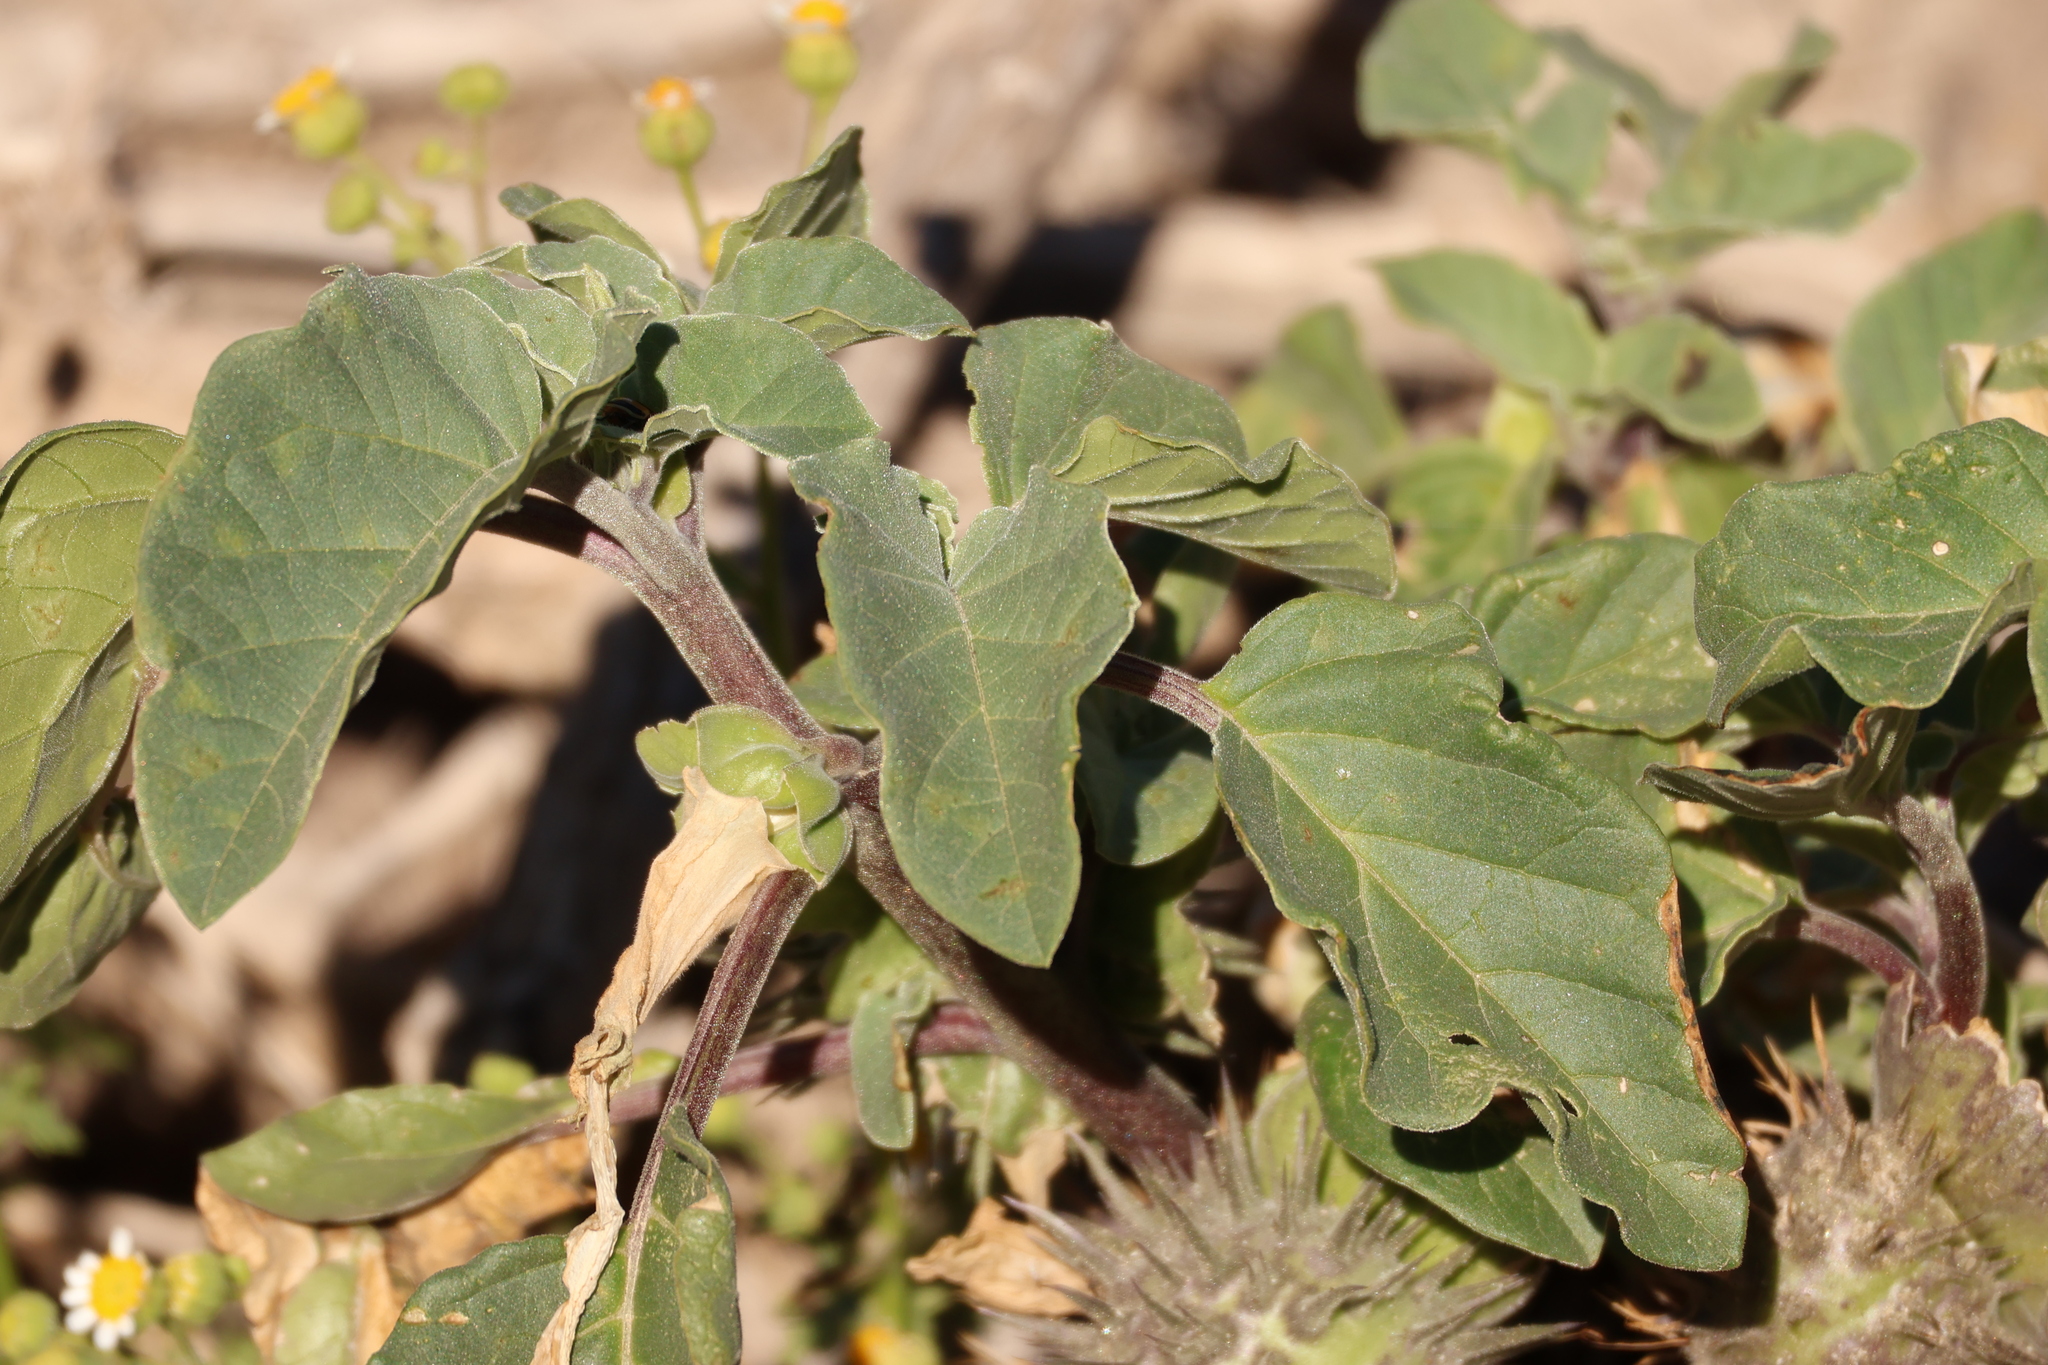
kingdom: Plantae
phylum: Tracheophyta
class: Magnoliopsida
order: Solanales
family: Solanaceae
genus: Datura
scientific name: Datura discolor
